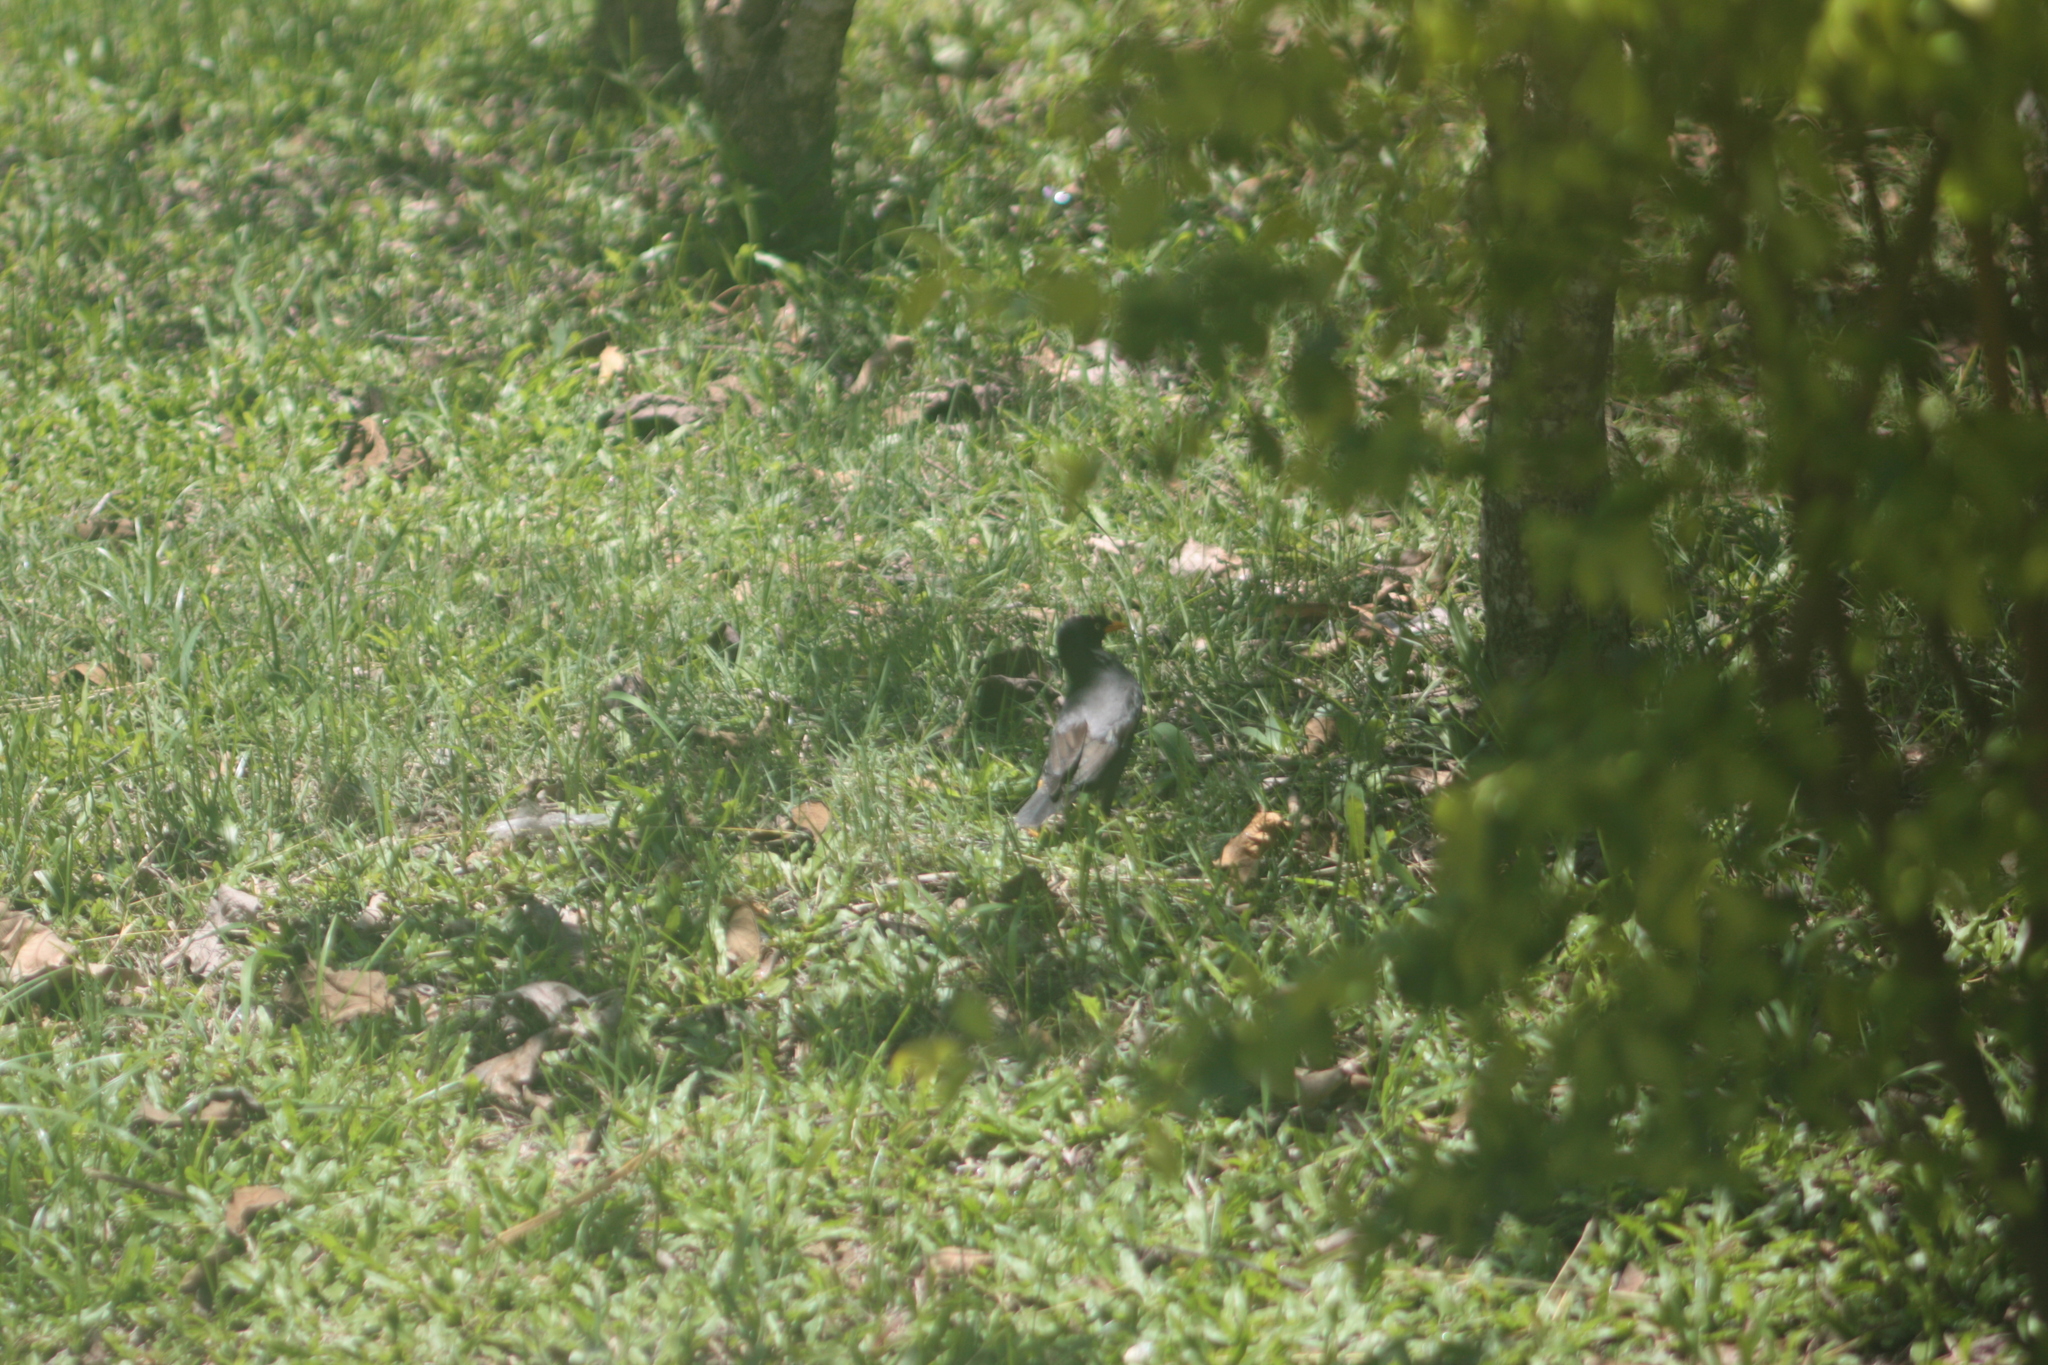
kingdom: Animalia
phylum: Chordata
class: Aves
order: Passeriformes
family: Sturnidae
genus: Acridotheres
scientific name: Acridotheres javanicus
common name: Javan myna
